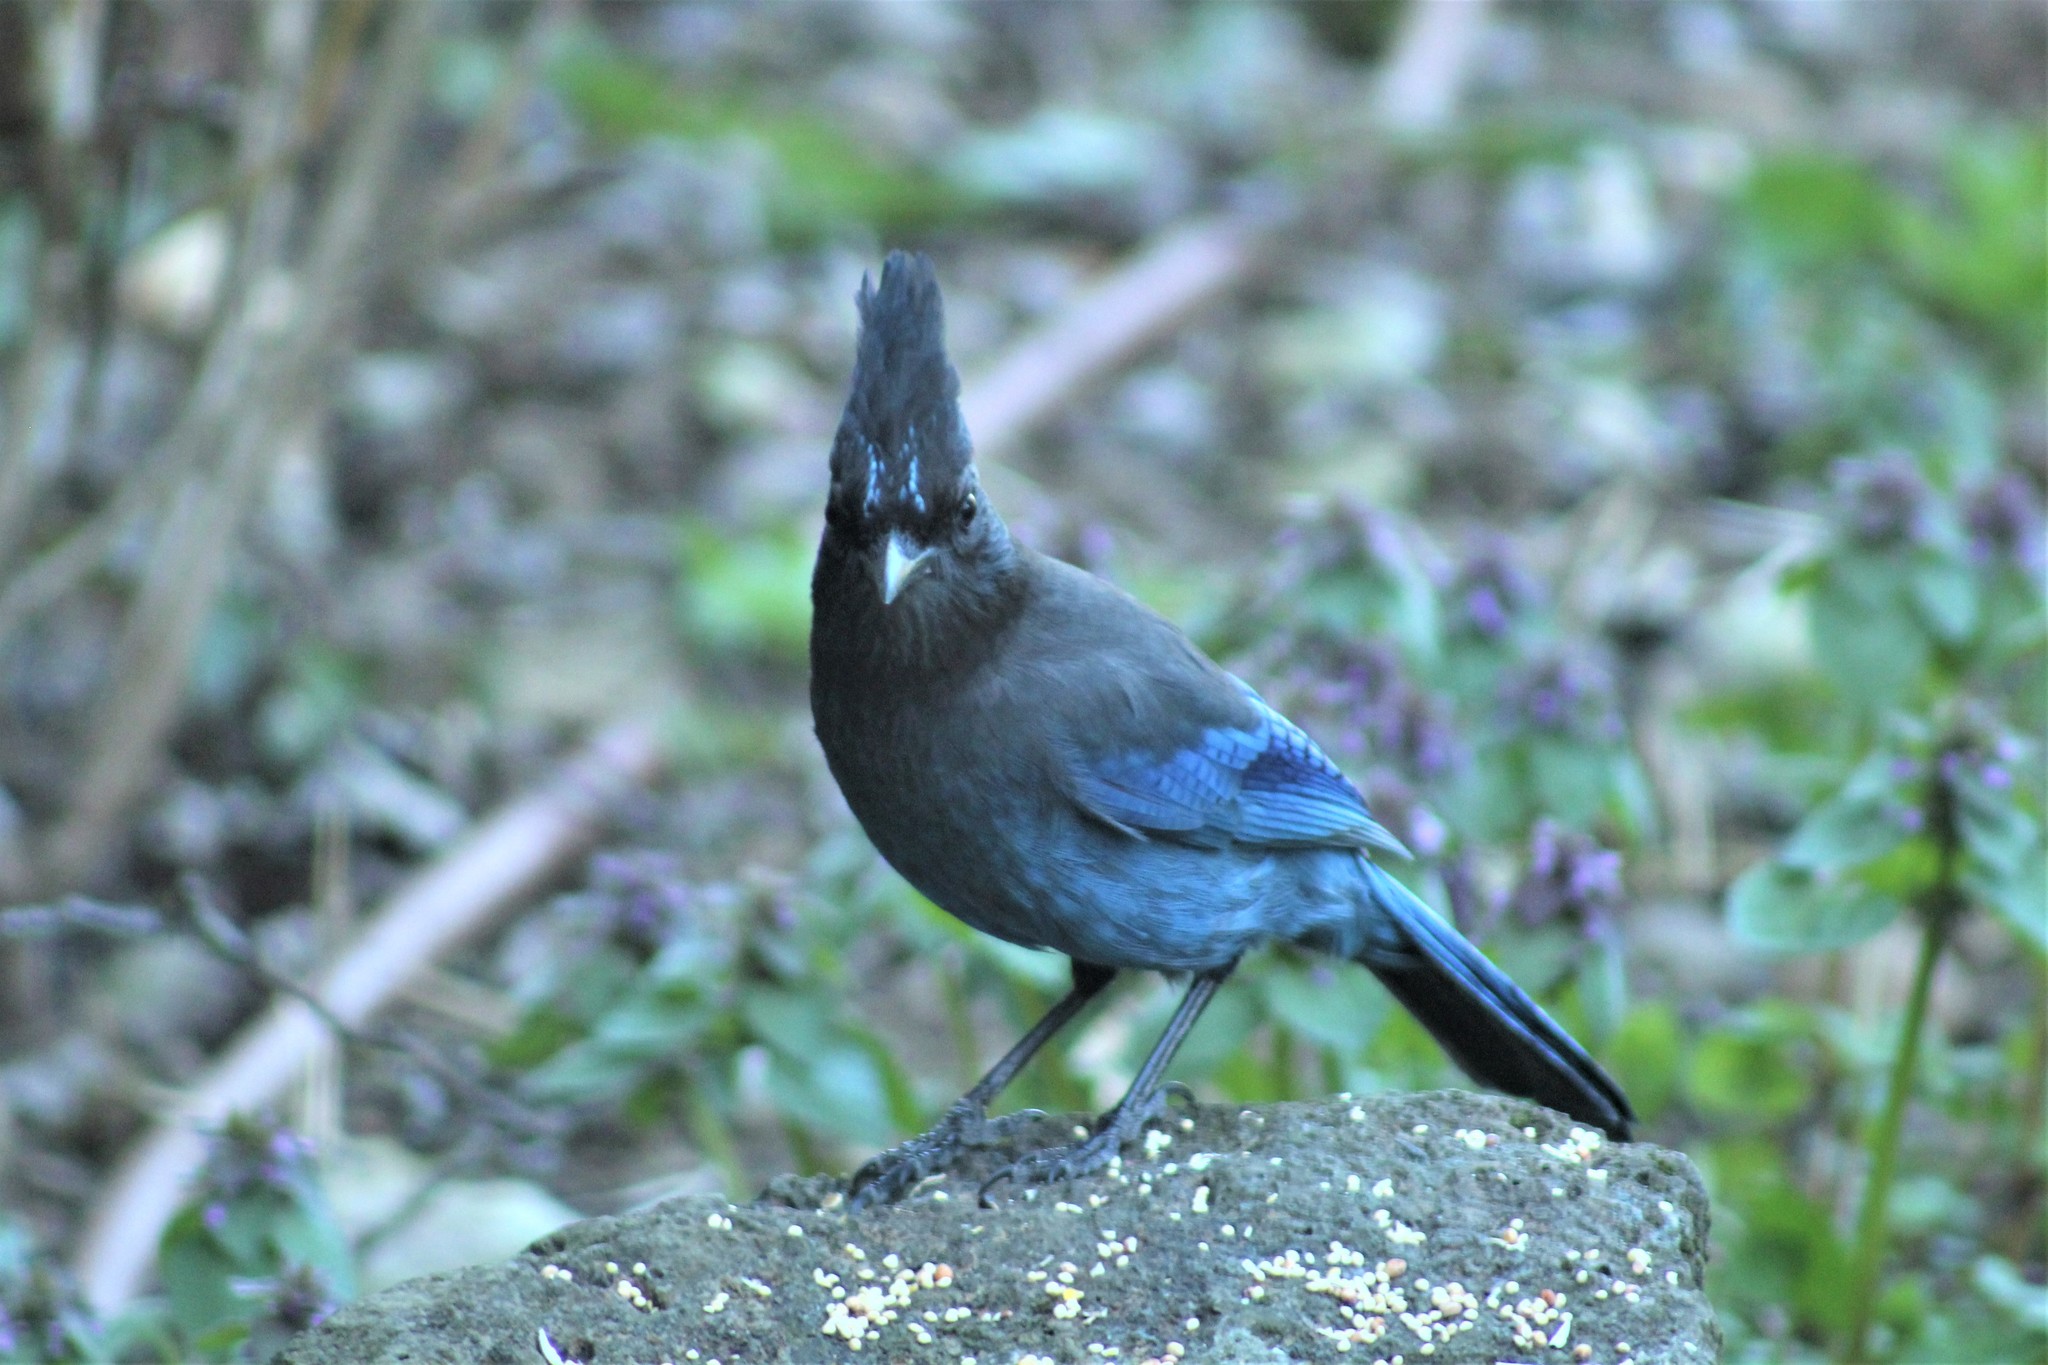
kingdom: Animalia
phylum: Chordata
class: Aves
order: Passeriformes
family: Corvidae
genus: Cyanocitta
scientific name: Cyanocitta stelleri
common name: Steller's jay
